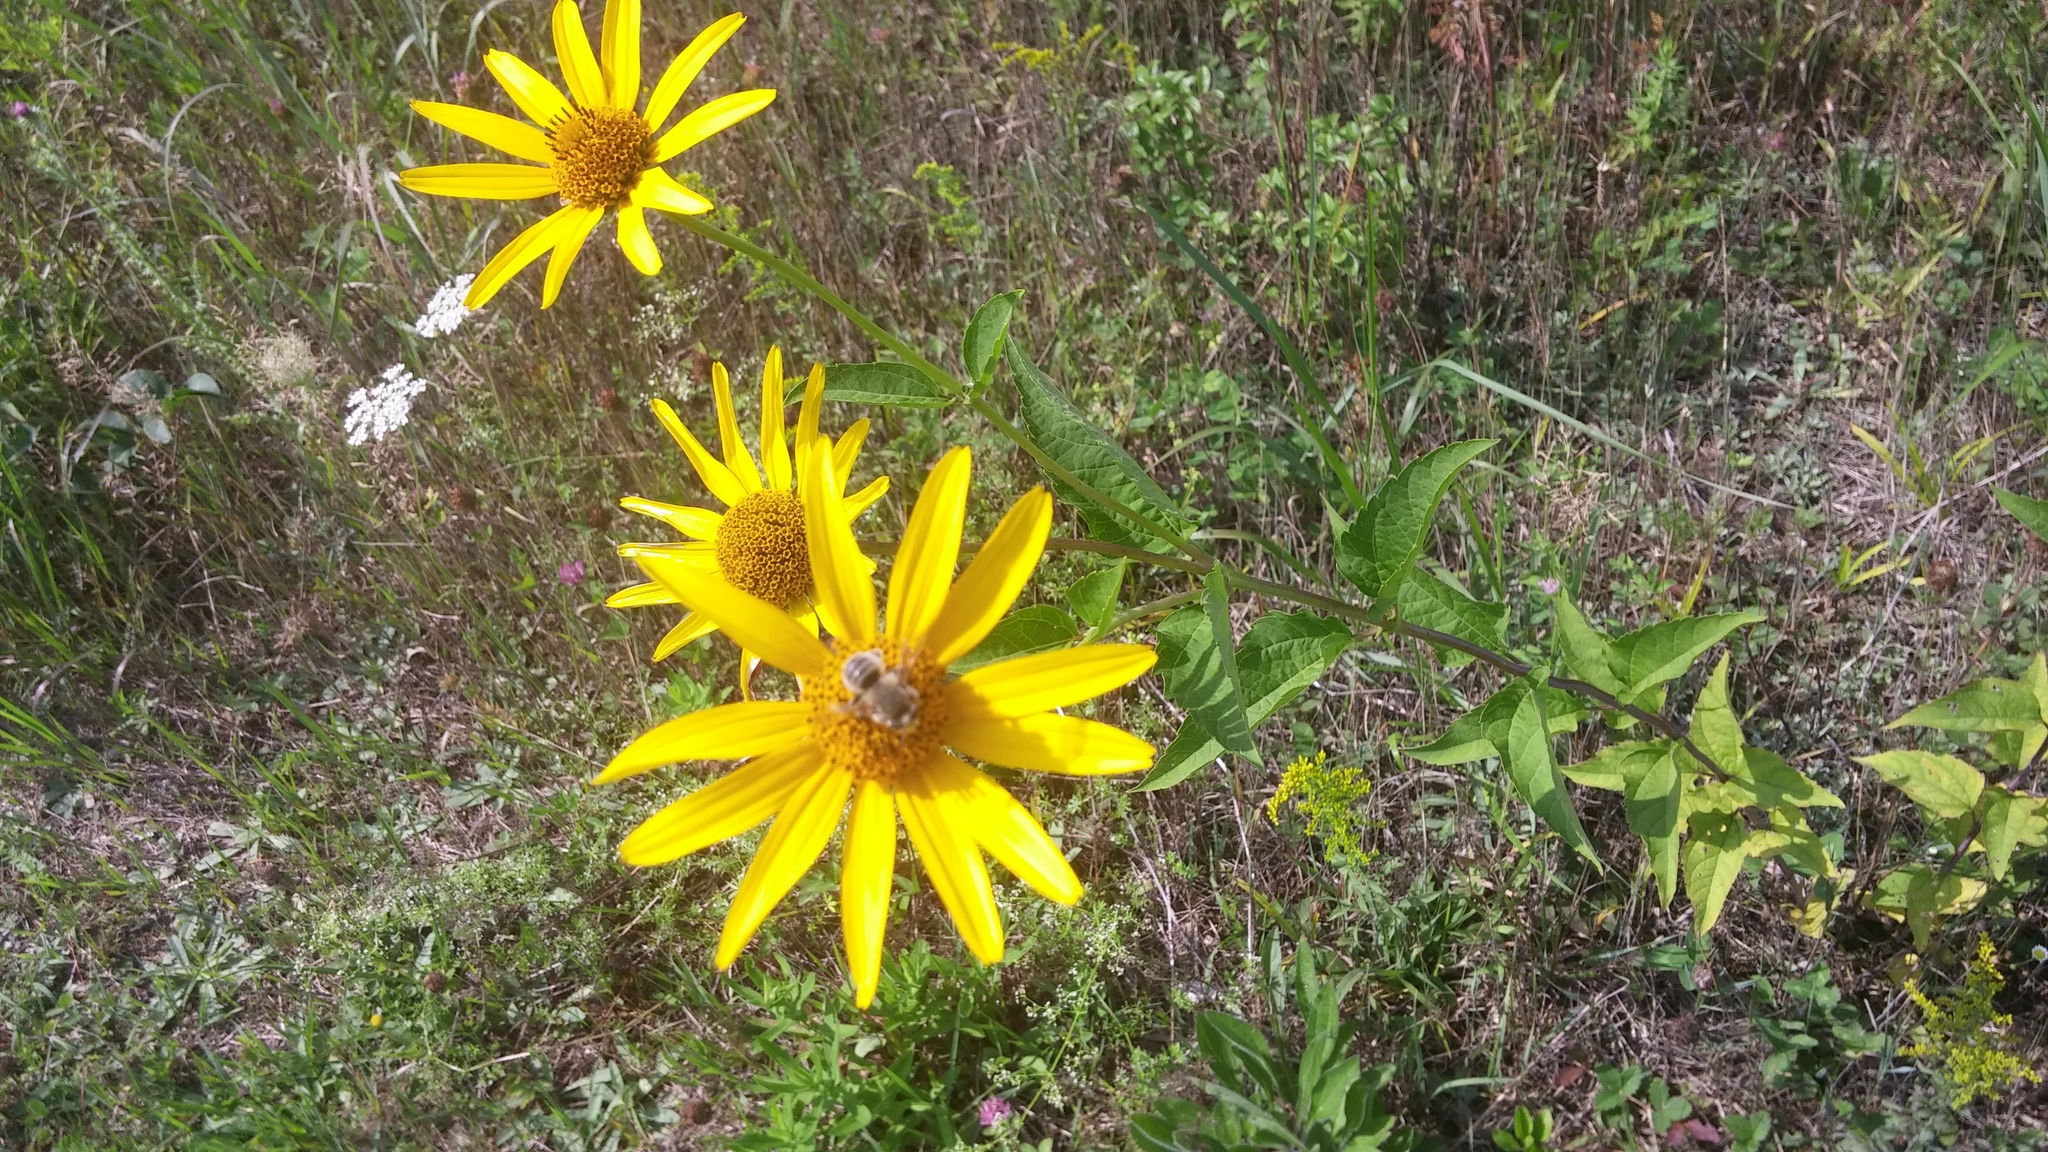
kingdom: Plantae
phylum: Tracheophyta
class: Magnoliopsida
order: Asterales
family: Asteraceae
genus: Heliopsis
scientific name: Heliopsis helianthoides
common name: False sunflower
